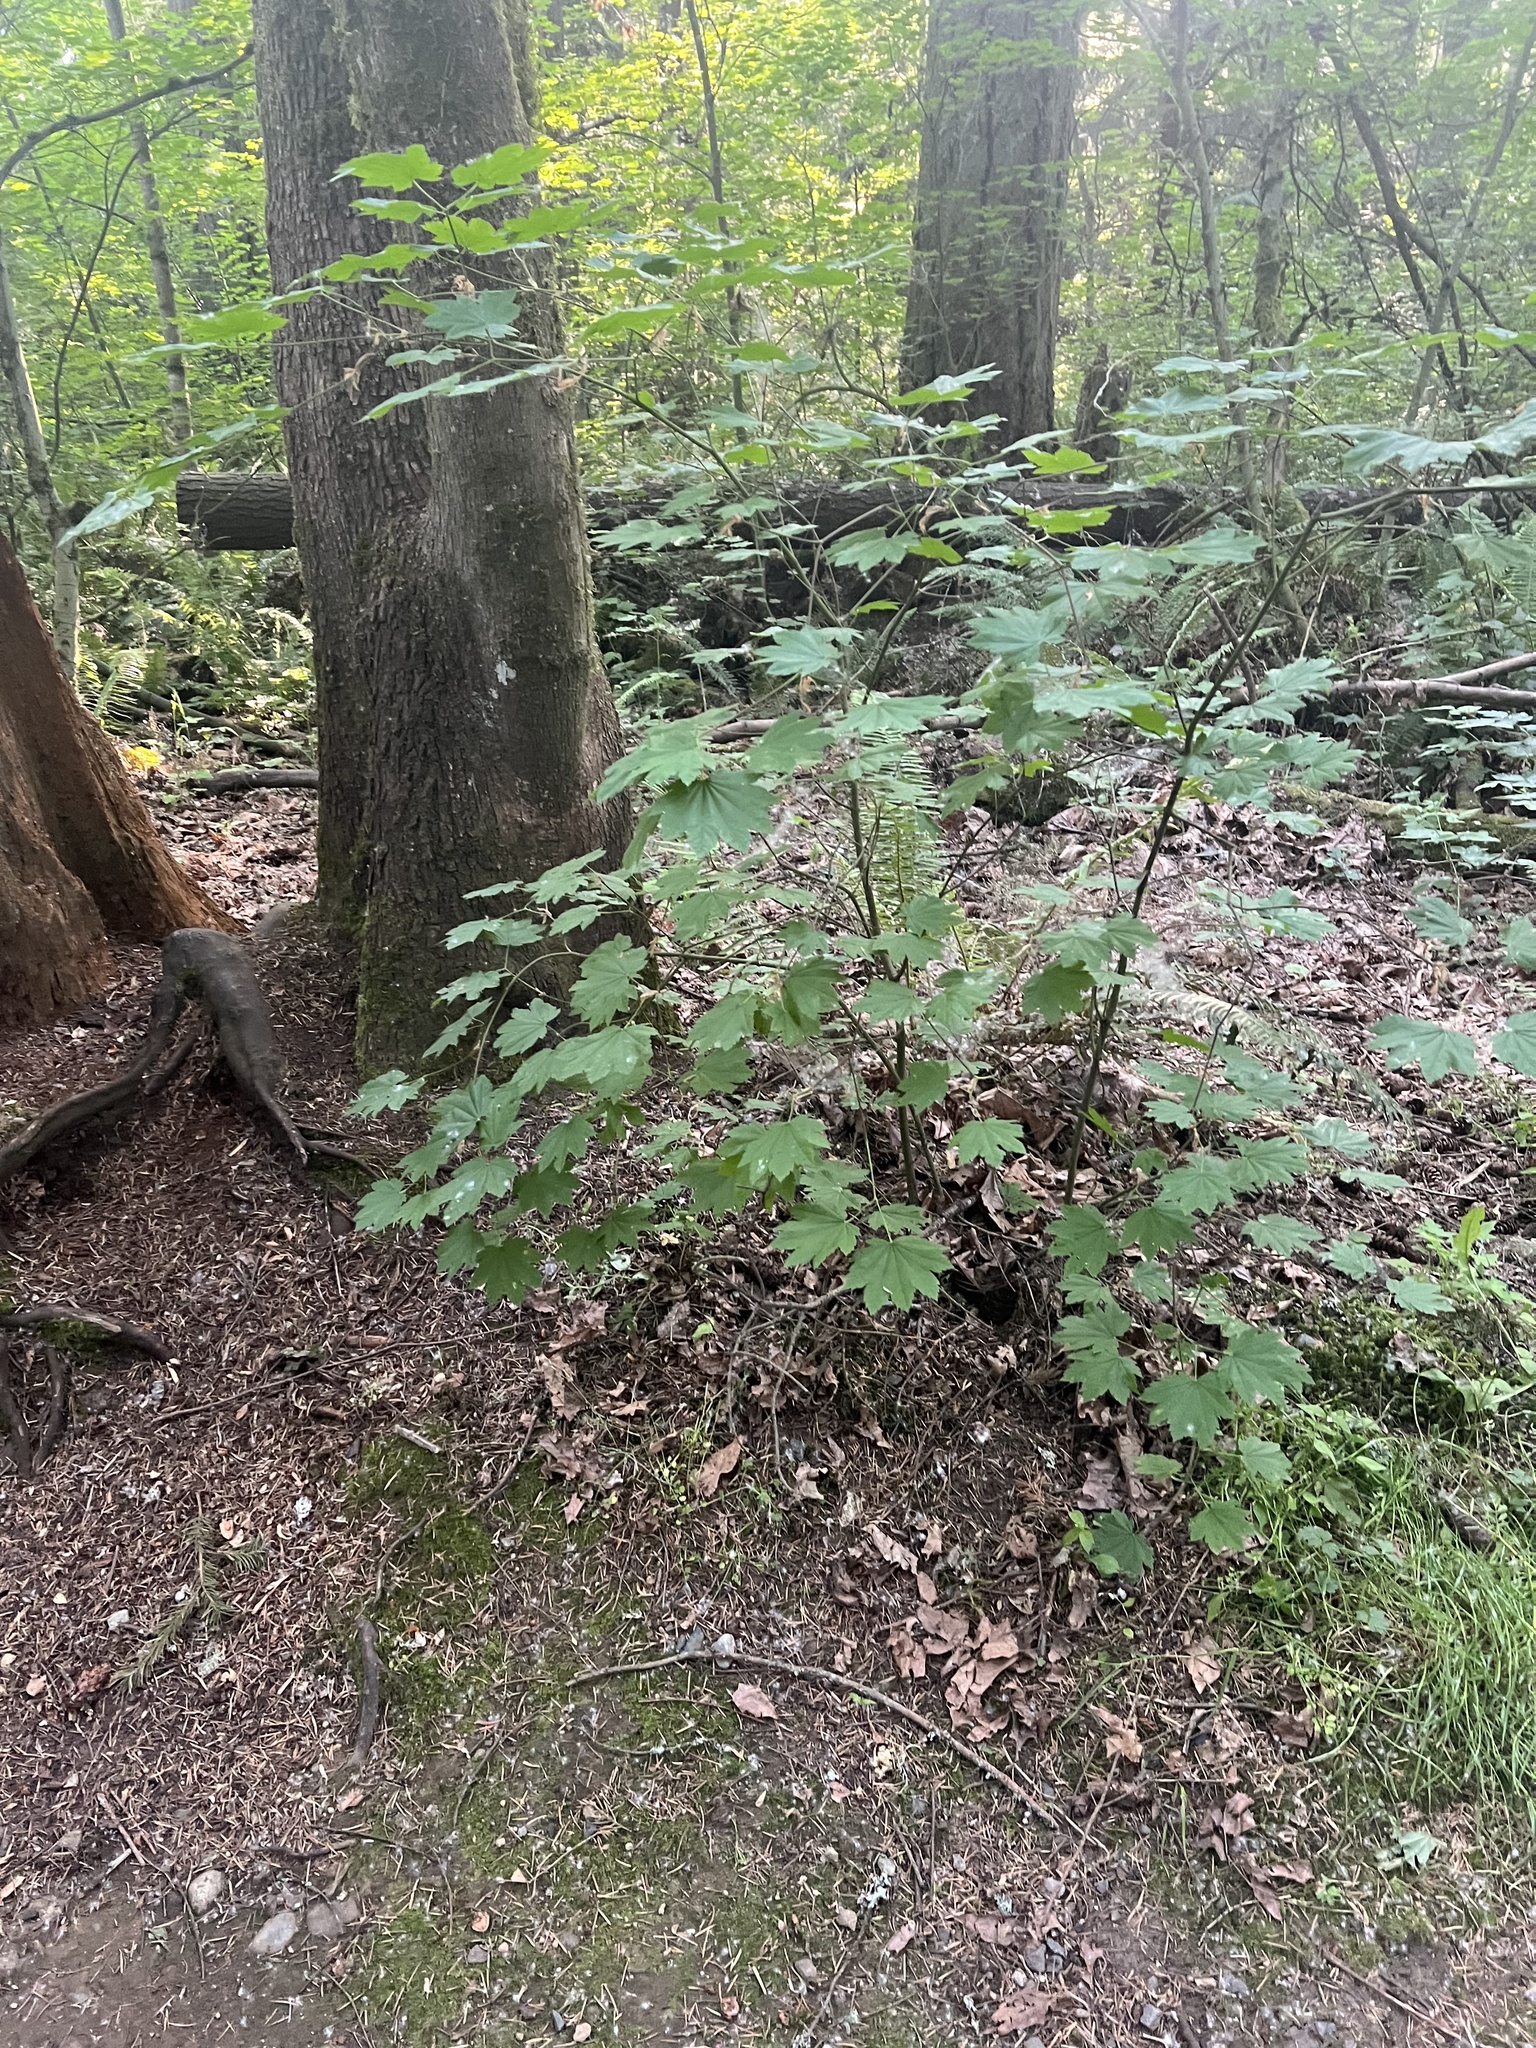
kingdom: Plantae
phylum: Tracheophyta
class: Magnoliopsida
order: Sapindales
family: Sapindaceae
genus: Acer
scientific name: Acer circinatum
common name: Vine maple
